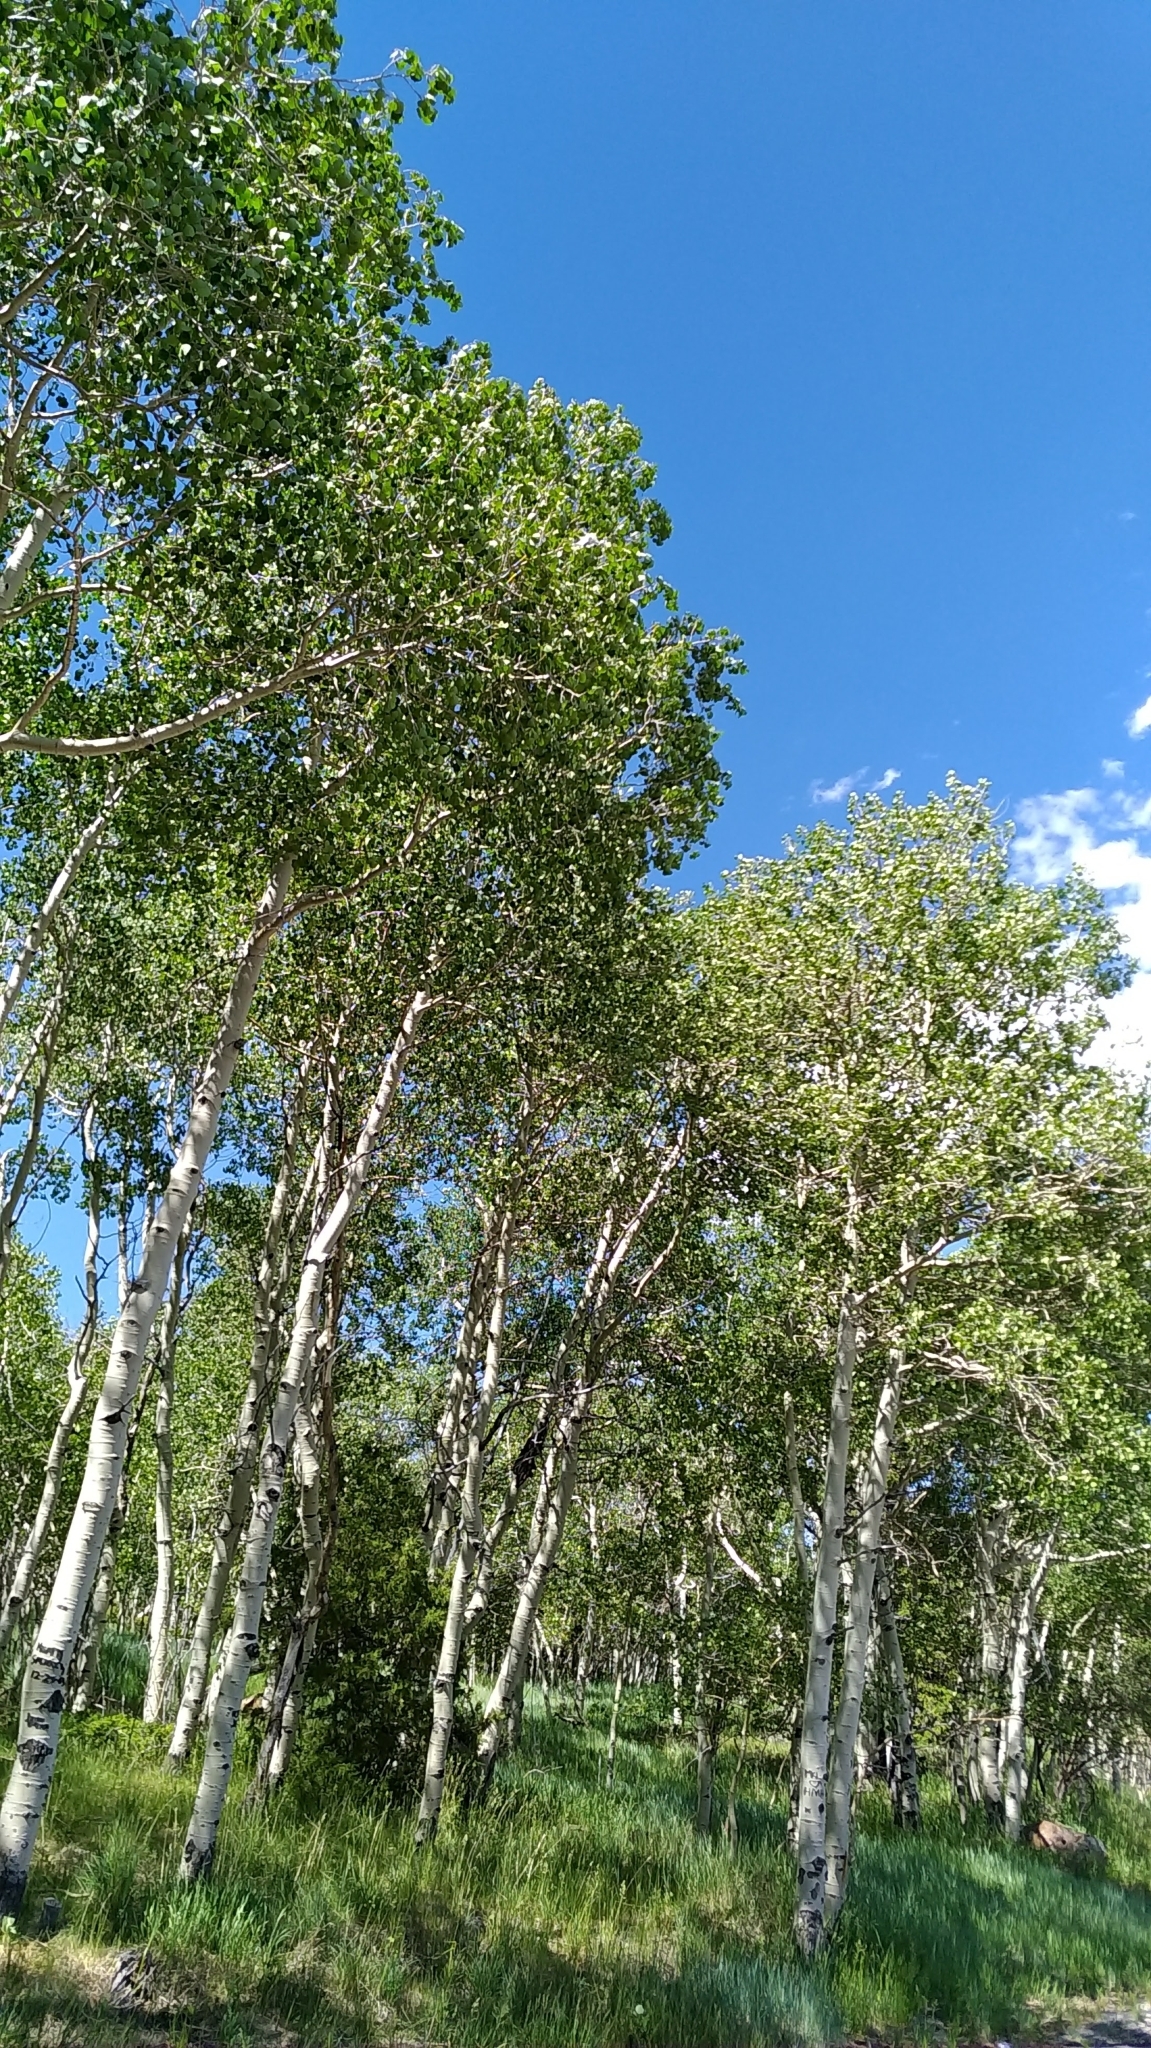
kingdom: Plantae
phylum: Tracheophyta
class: Magnoliopsida
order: Malpighiales
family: Salicaceae
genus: Populus
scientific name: Populus tremuloides
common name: Quaking aspen
